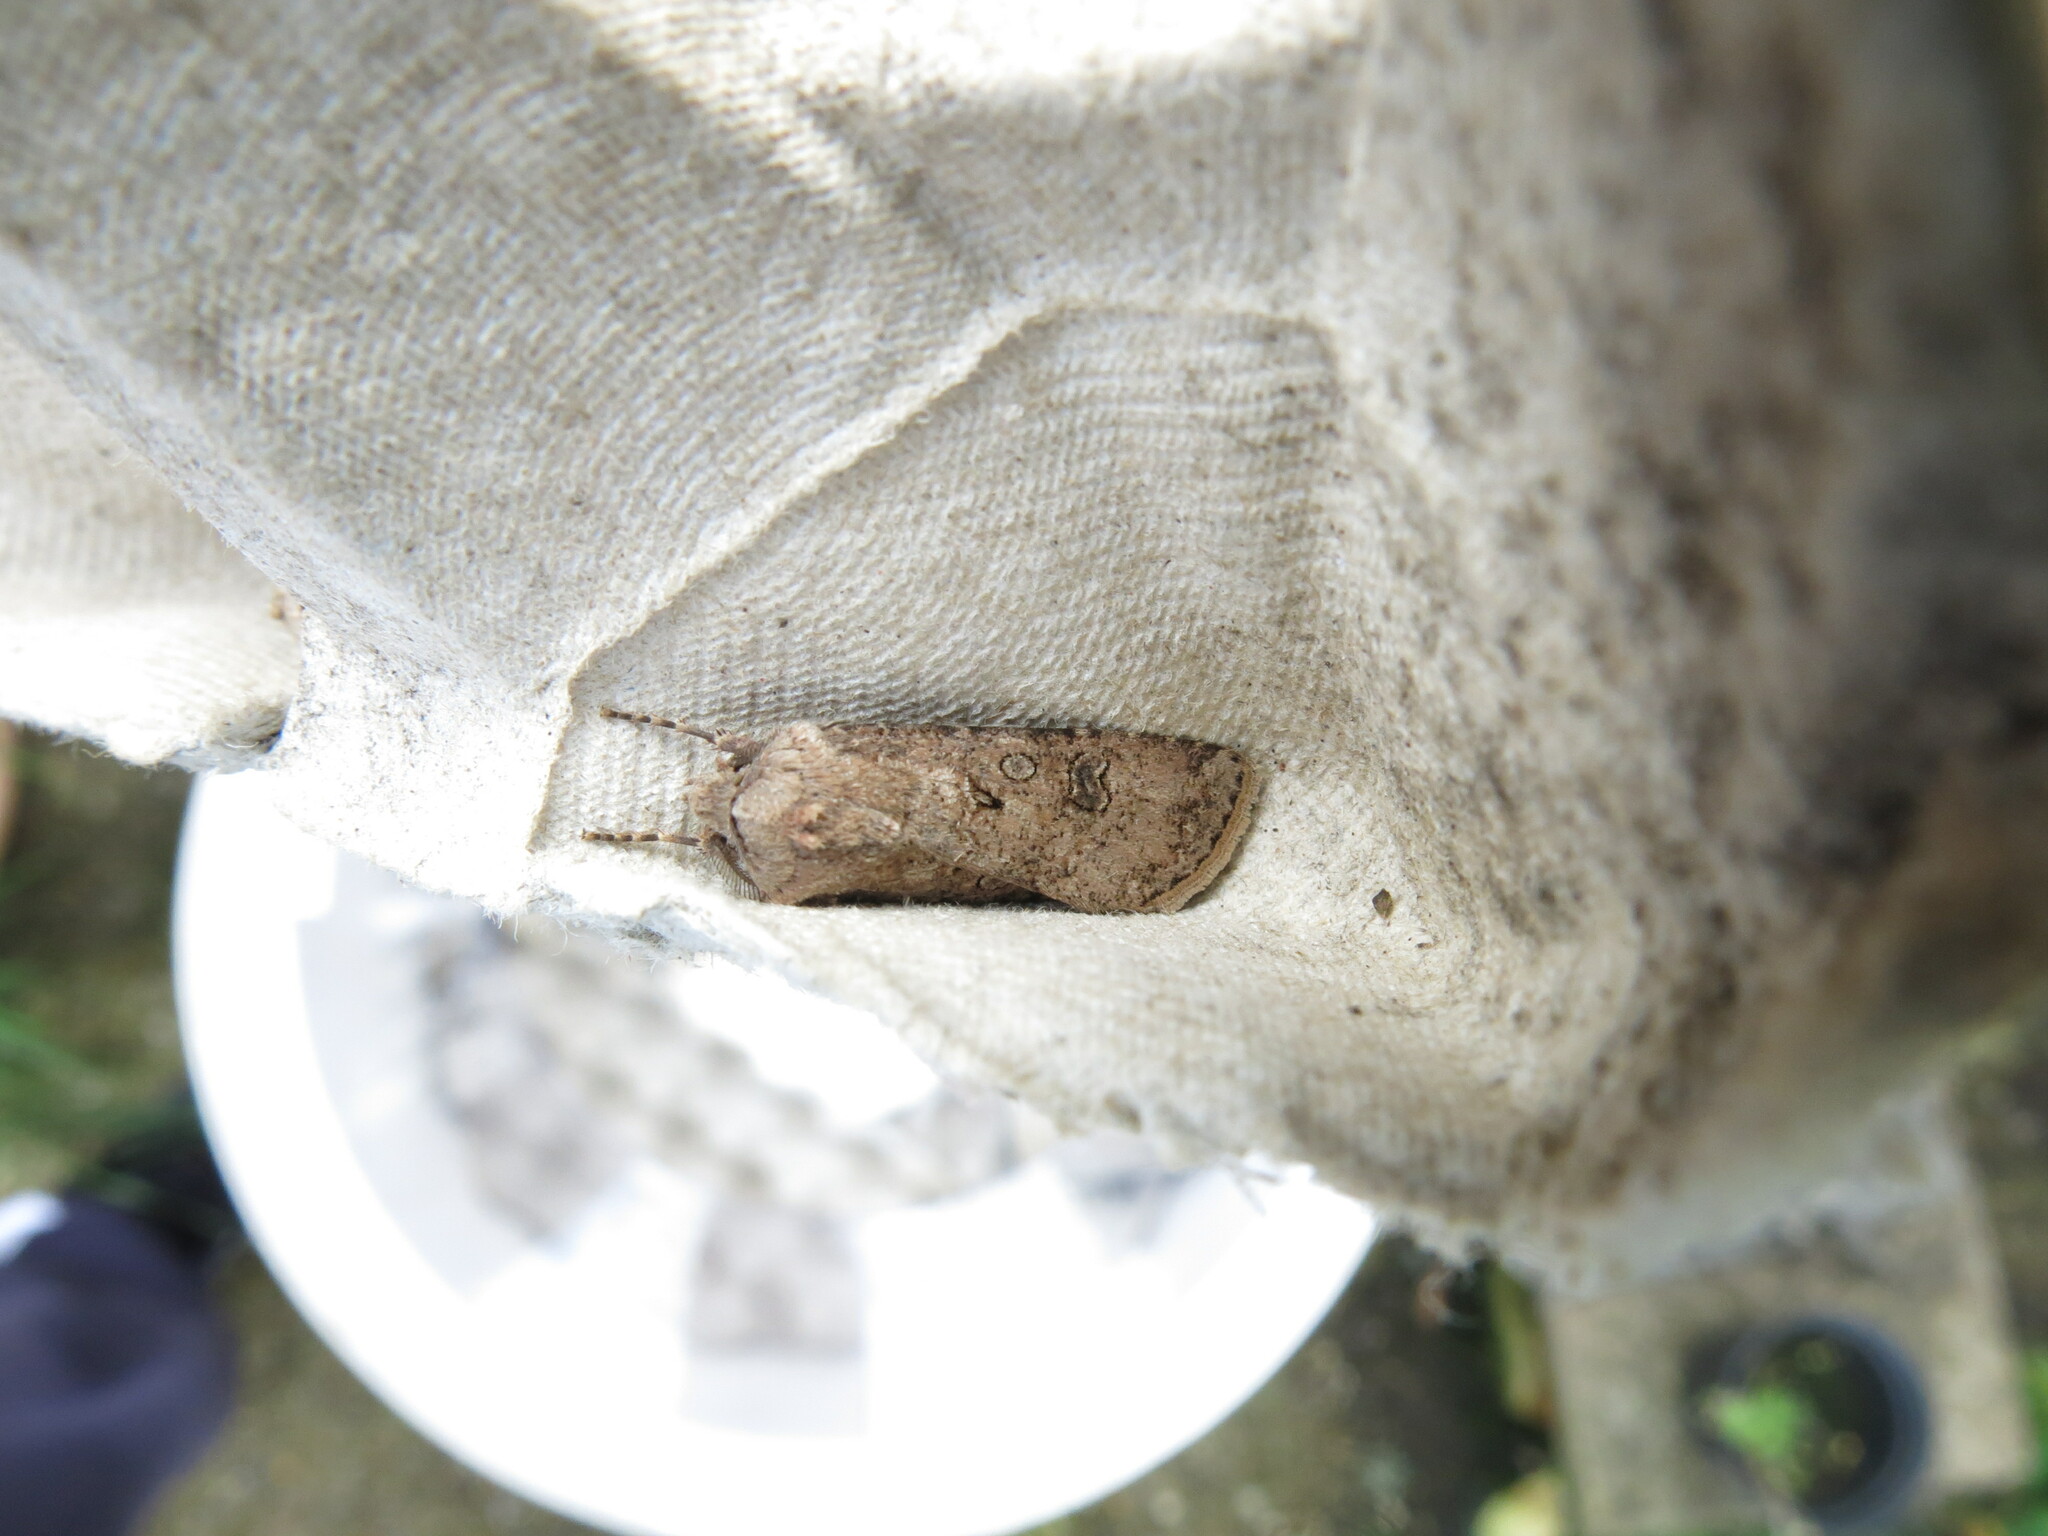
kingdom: Animalia
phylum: Arthropoda
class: Insecta
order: Lepidoptera
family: Noctuidae
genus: Agrotis
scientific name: Agrotis segetum
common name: Turnip moth
